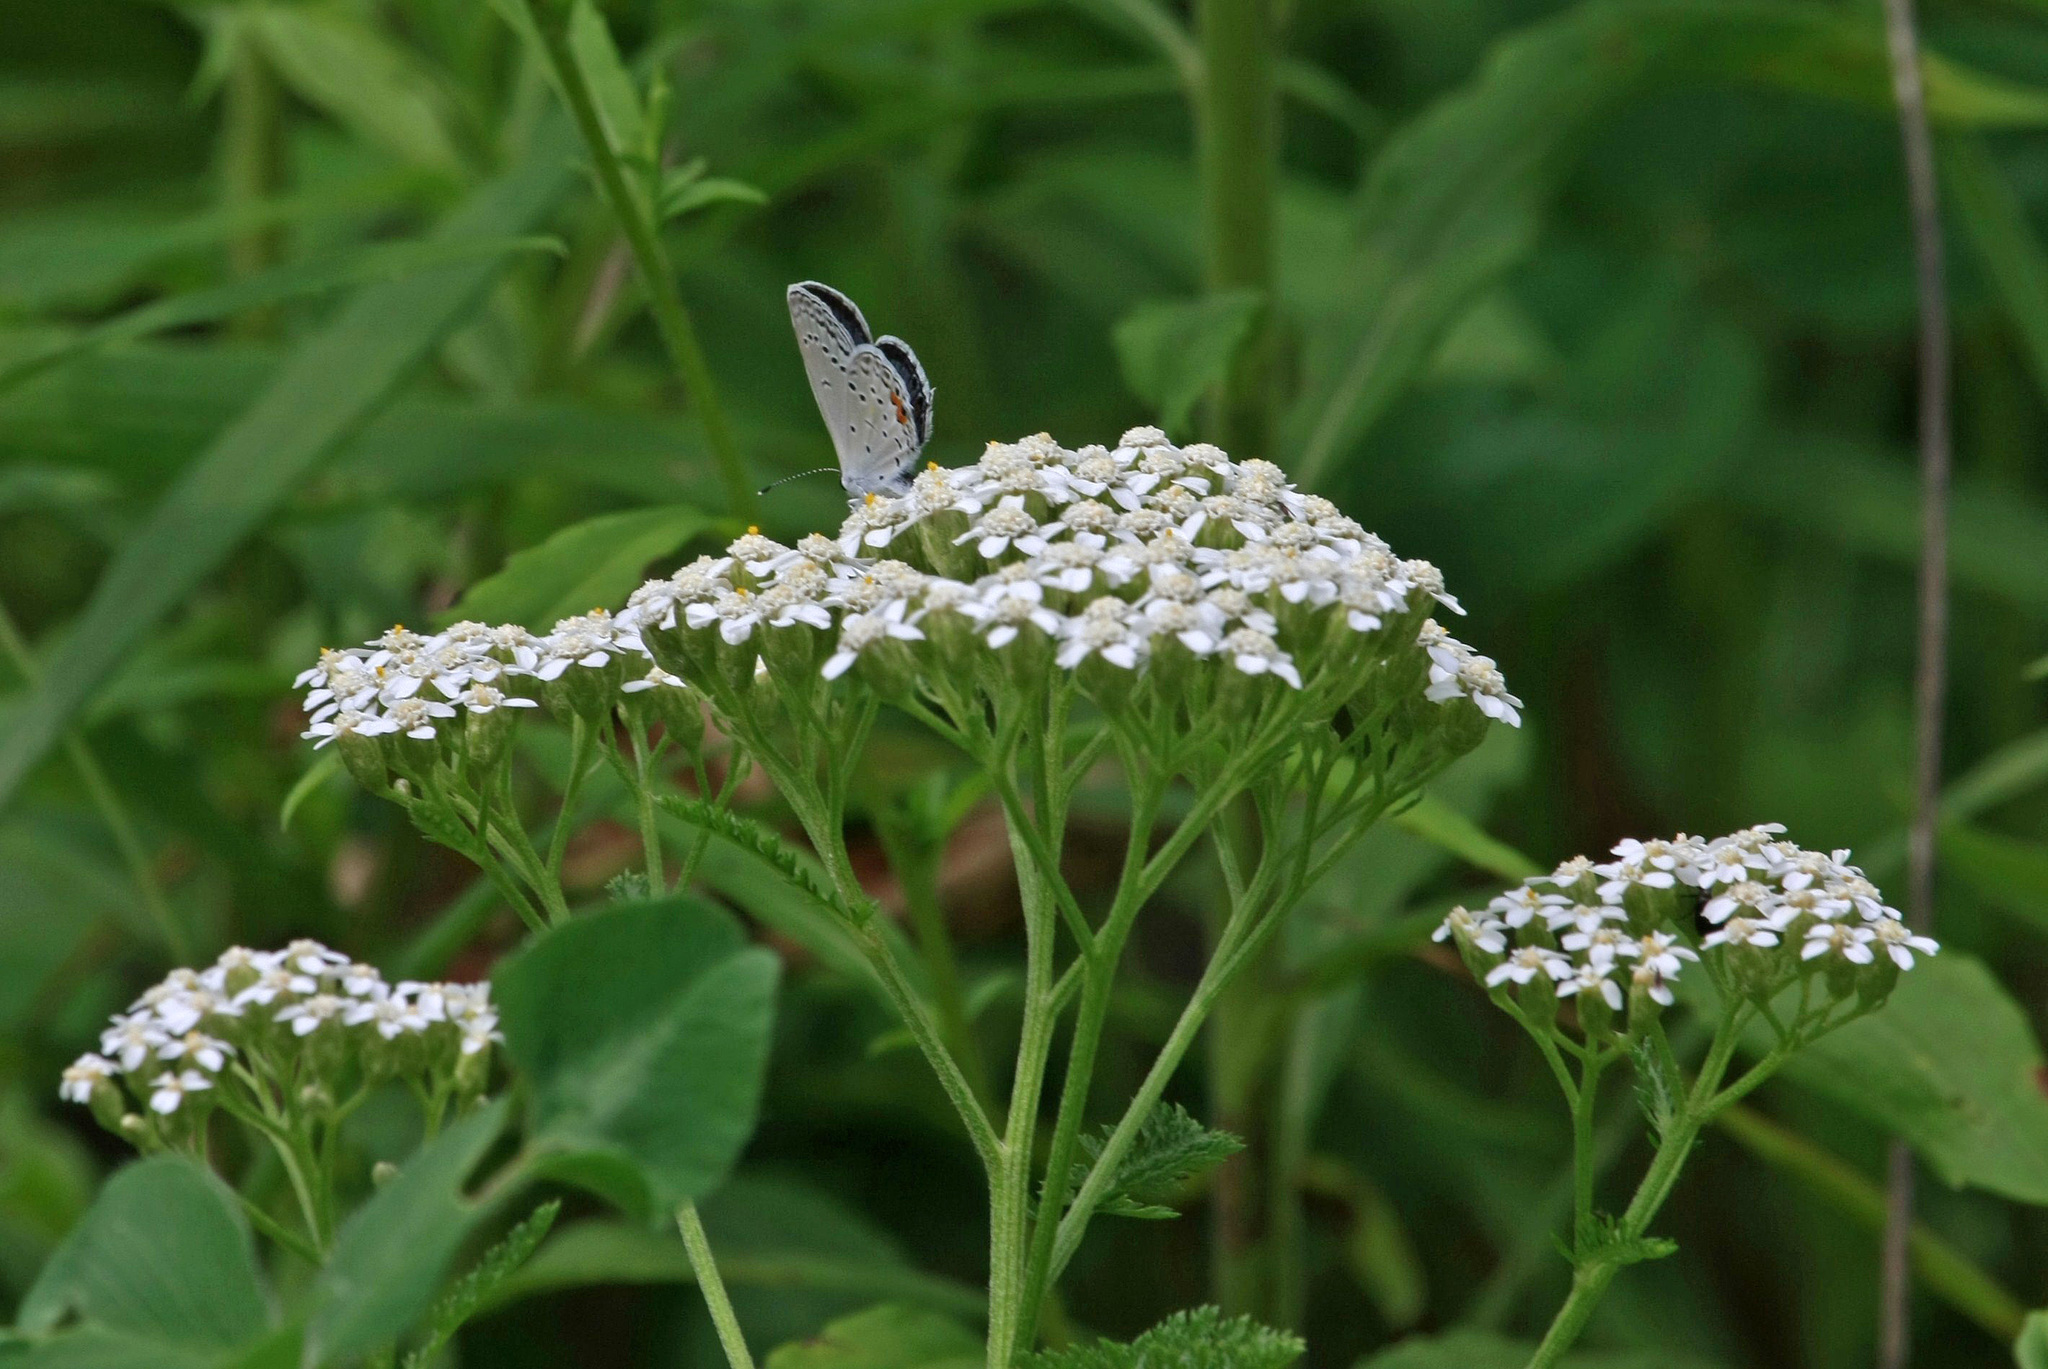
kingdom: Animalia
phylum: Arthropoda
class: Insecta
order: Lepidoptera
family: Lycaenidae
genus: Elkalyce
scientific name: Elkalyce comyntas
